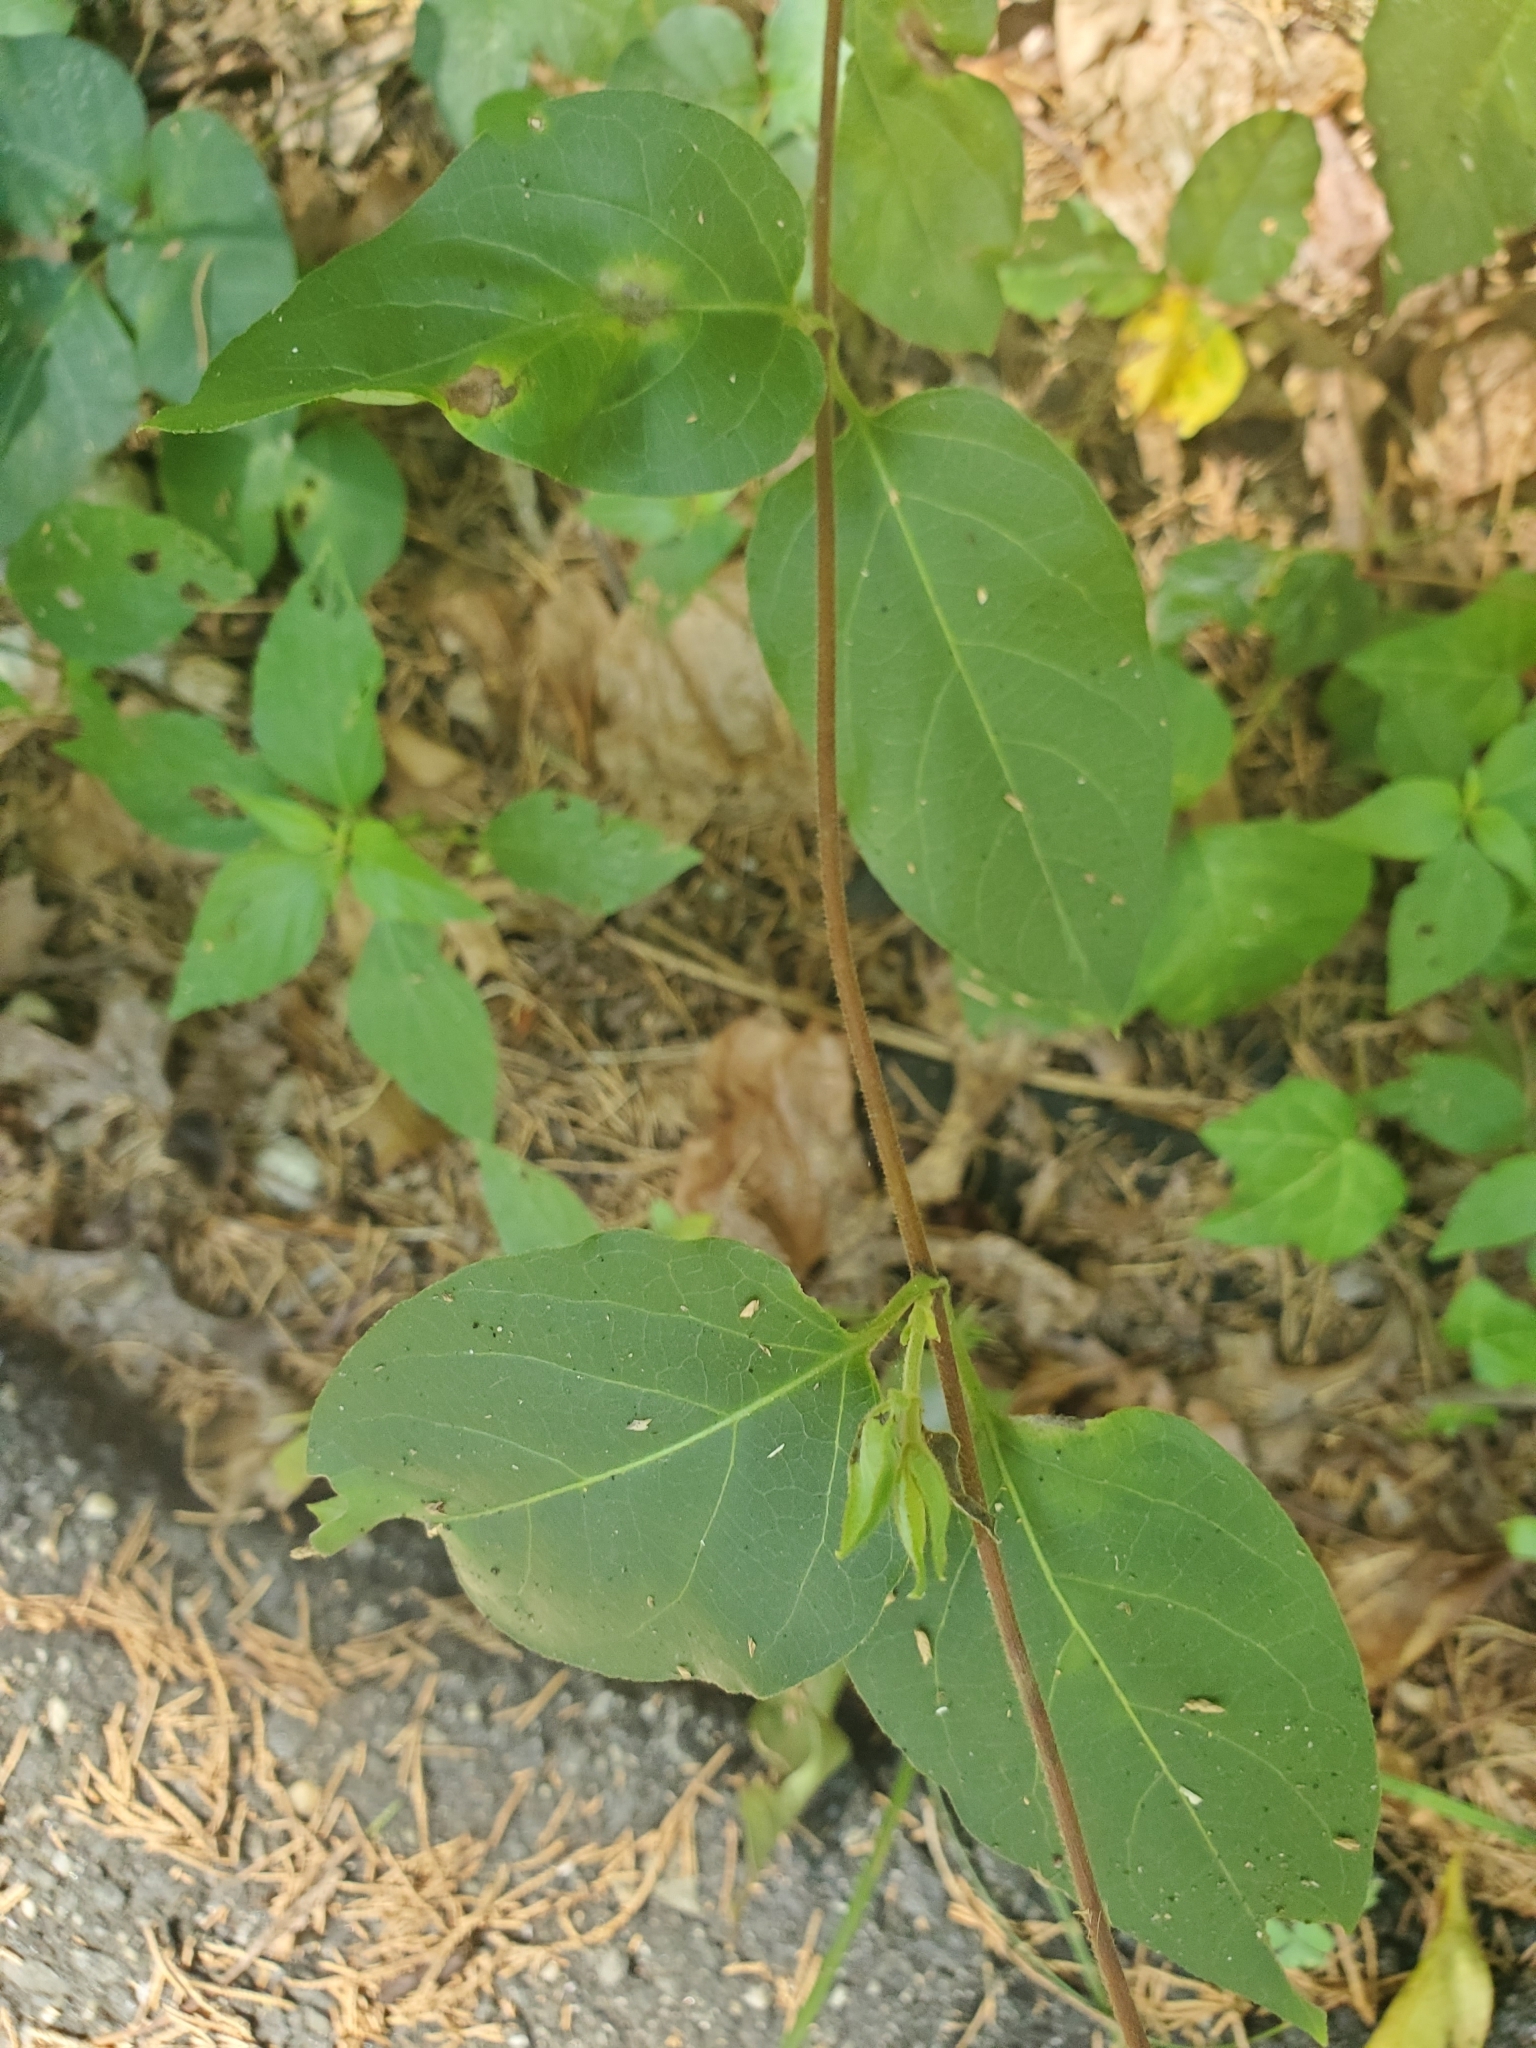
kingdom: Plantae
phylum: Tracheophyta
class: Magnoliopsida
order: Dipsacales
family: Caprifoliaceae
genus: Lonicera
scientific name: Lonicera japonica
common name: Japanese honeysuckle
